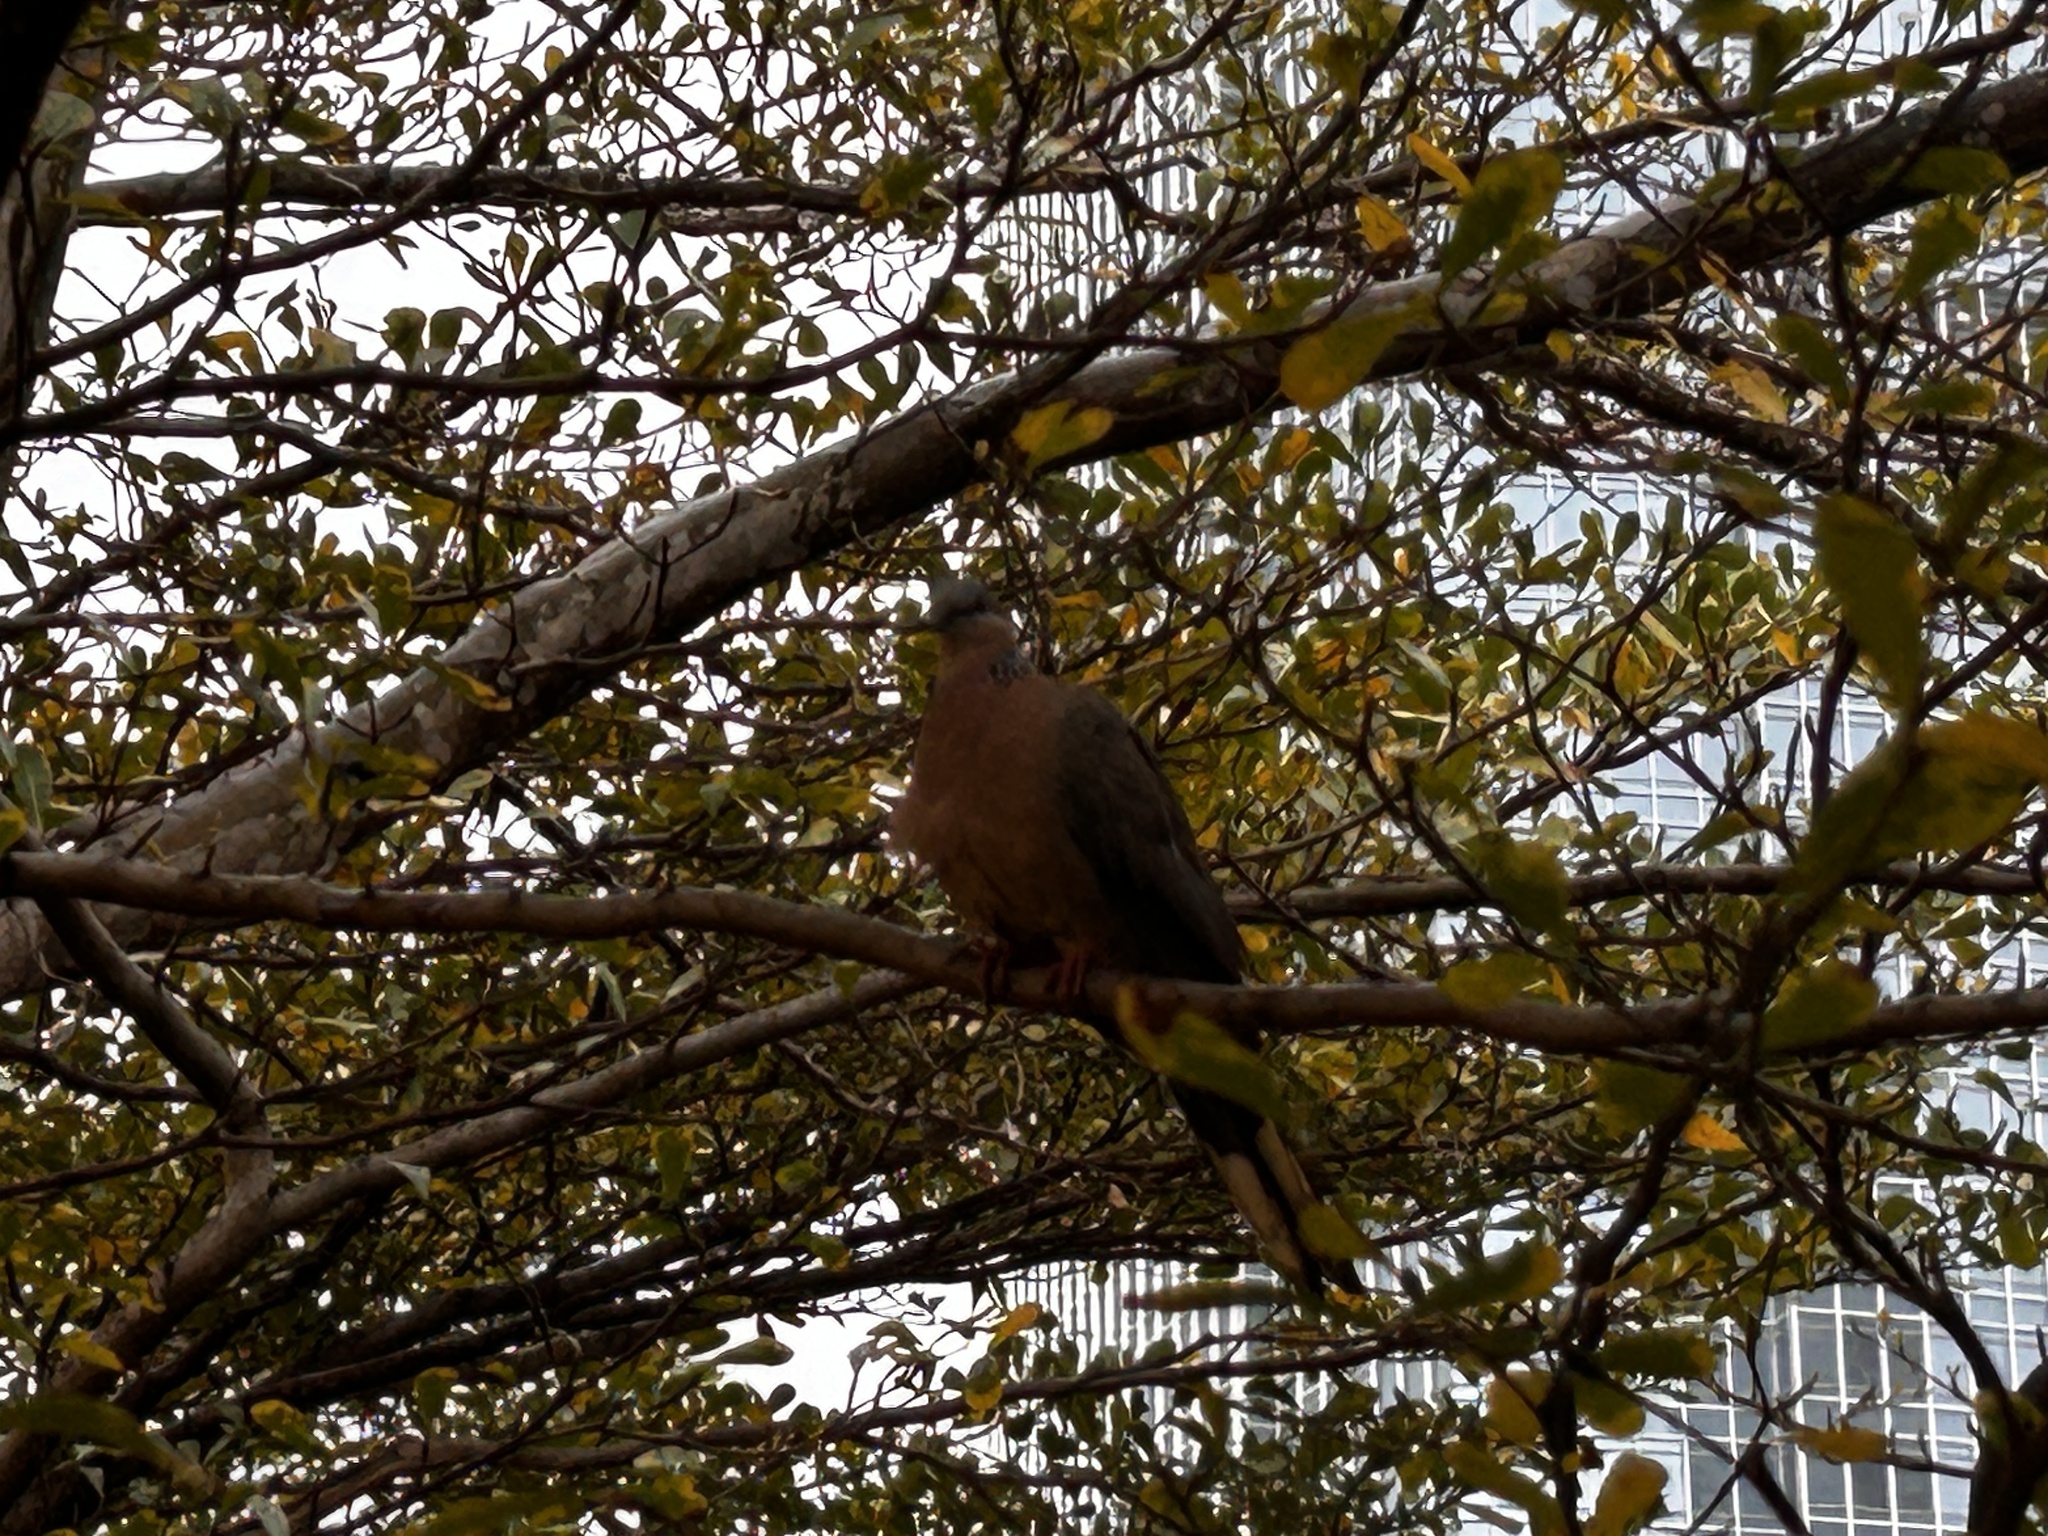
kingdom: Animalia
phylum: Chordata
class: Aves
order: Columbiformes
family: Columbidae
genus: Spilopelia
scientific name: Spilopelia chinensis
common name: Spotted dove
